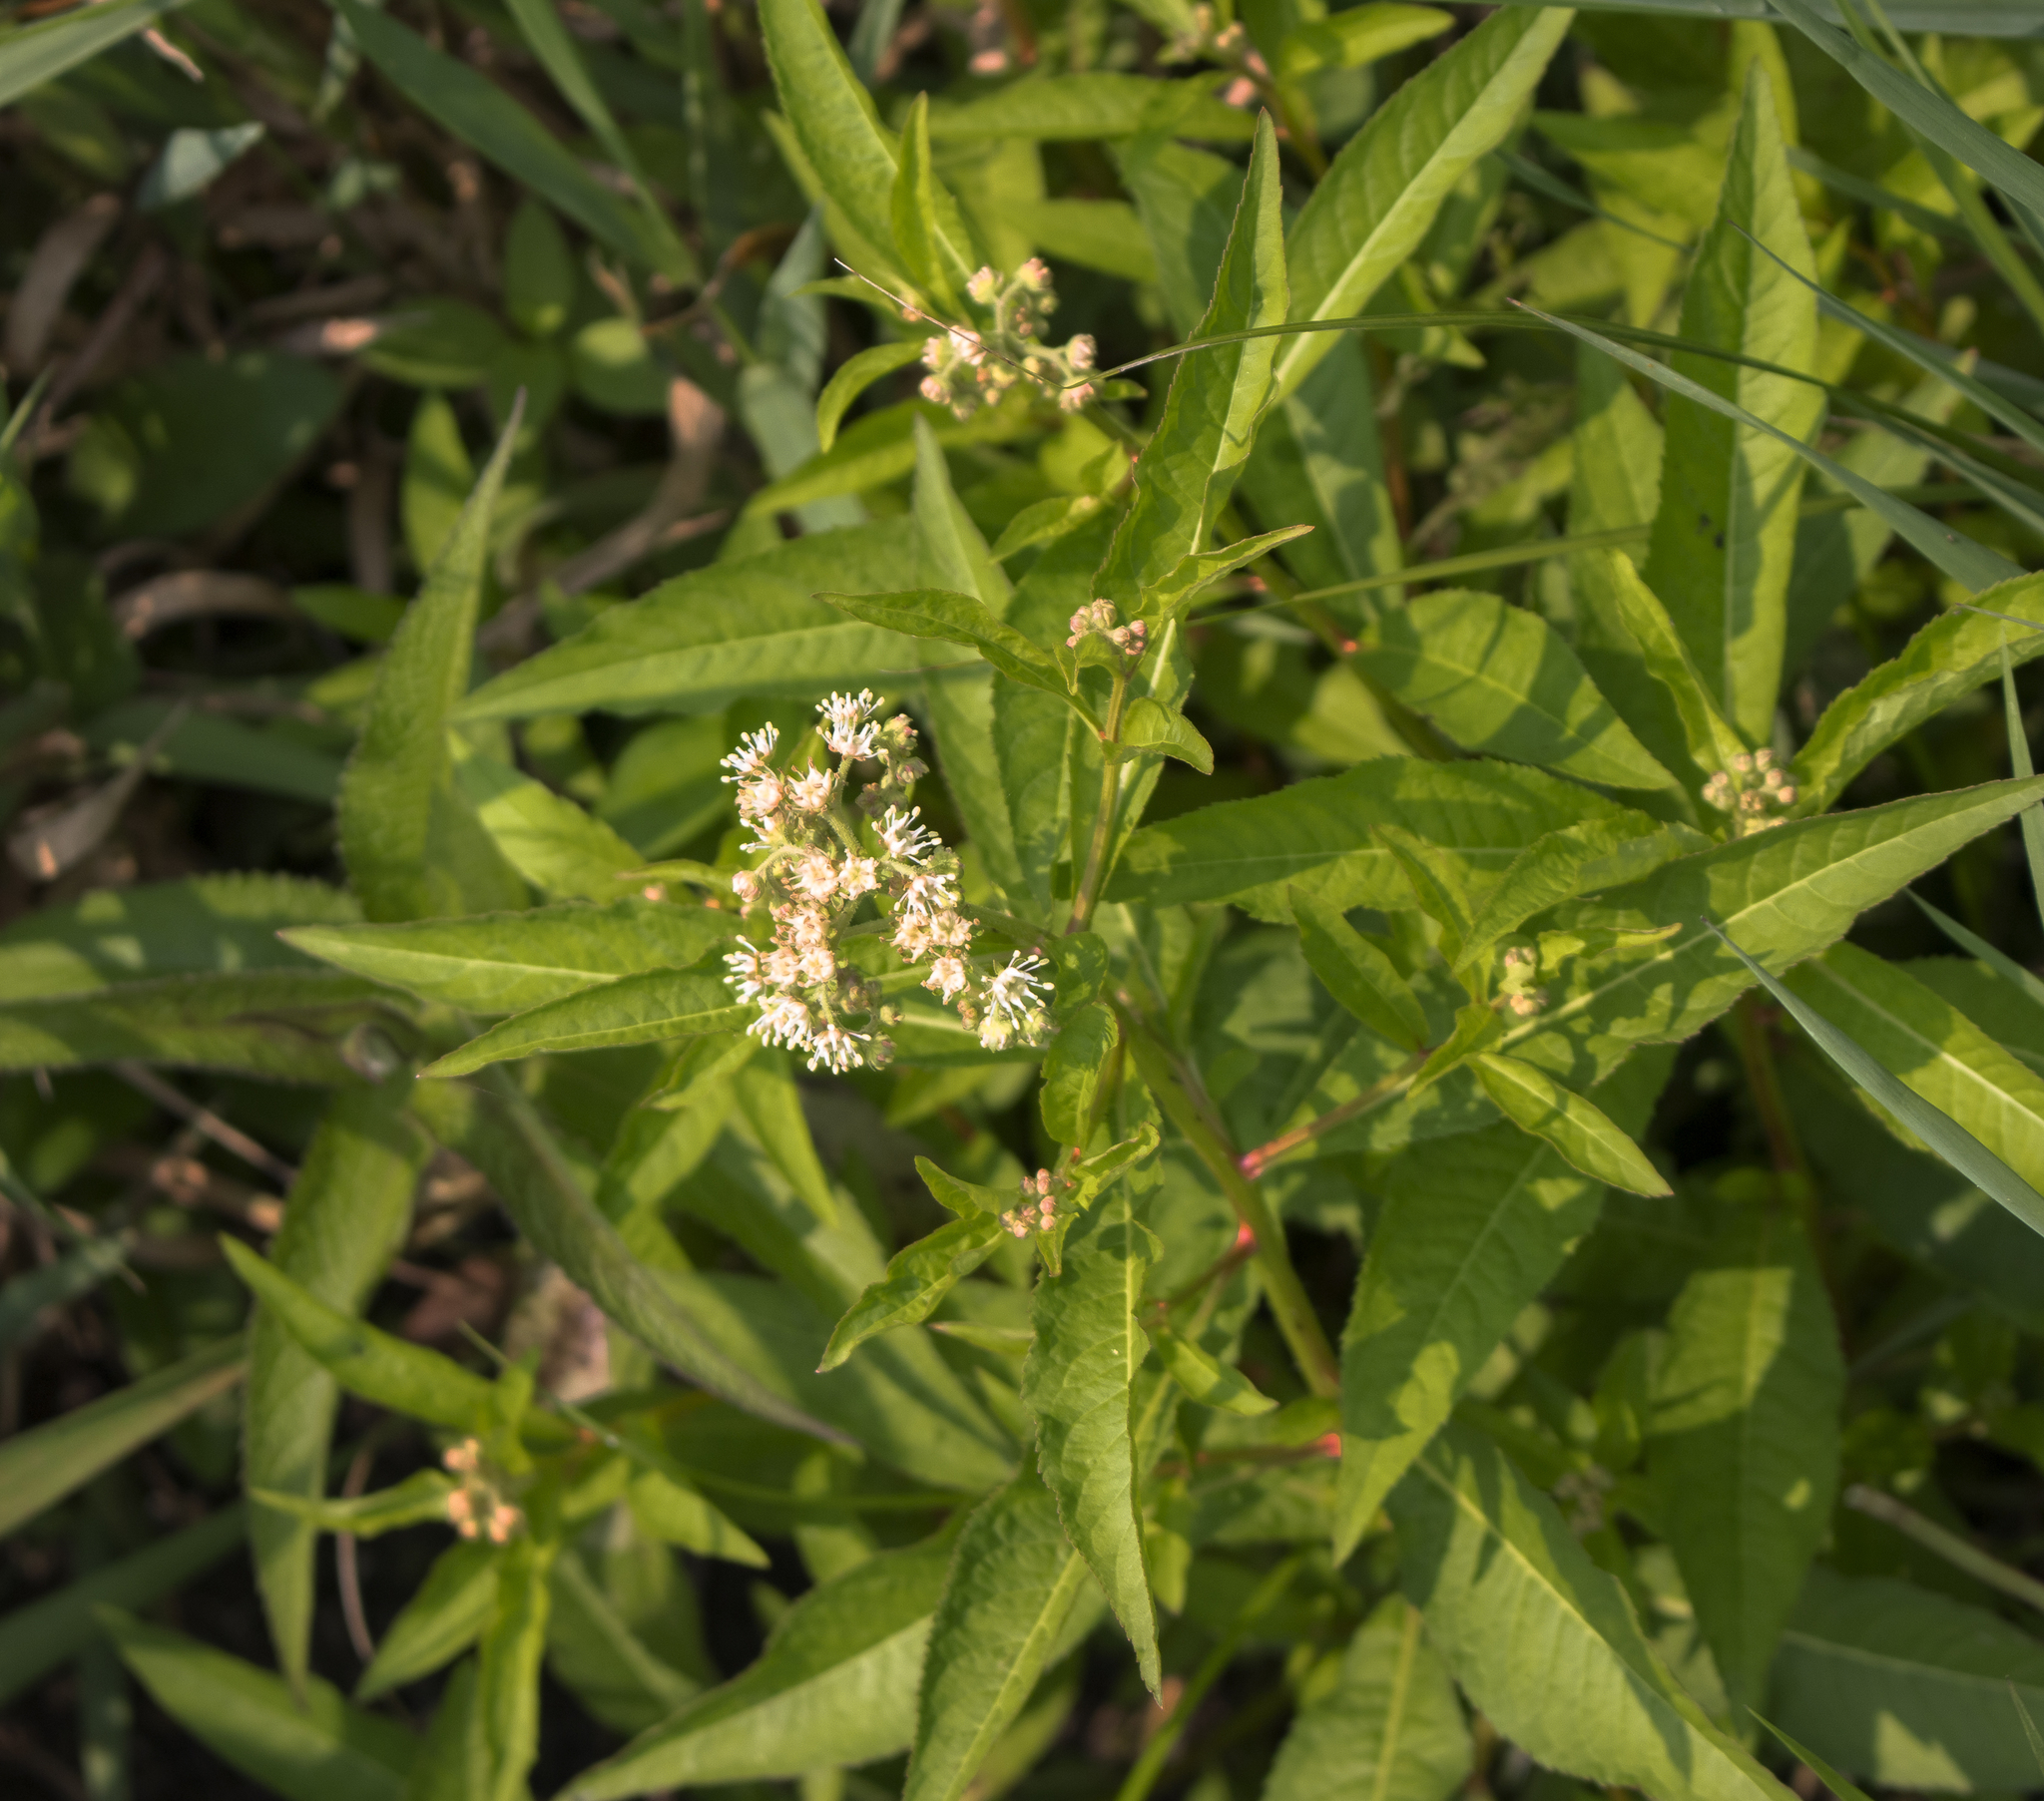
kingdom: Plantae
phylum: Tracheophyta
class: Magnoliopsida
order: Saxifragales
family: Penthoraceae
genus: Penthorum
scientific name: Penthorum sedoides
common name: Ditch stonecrop
